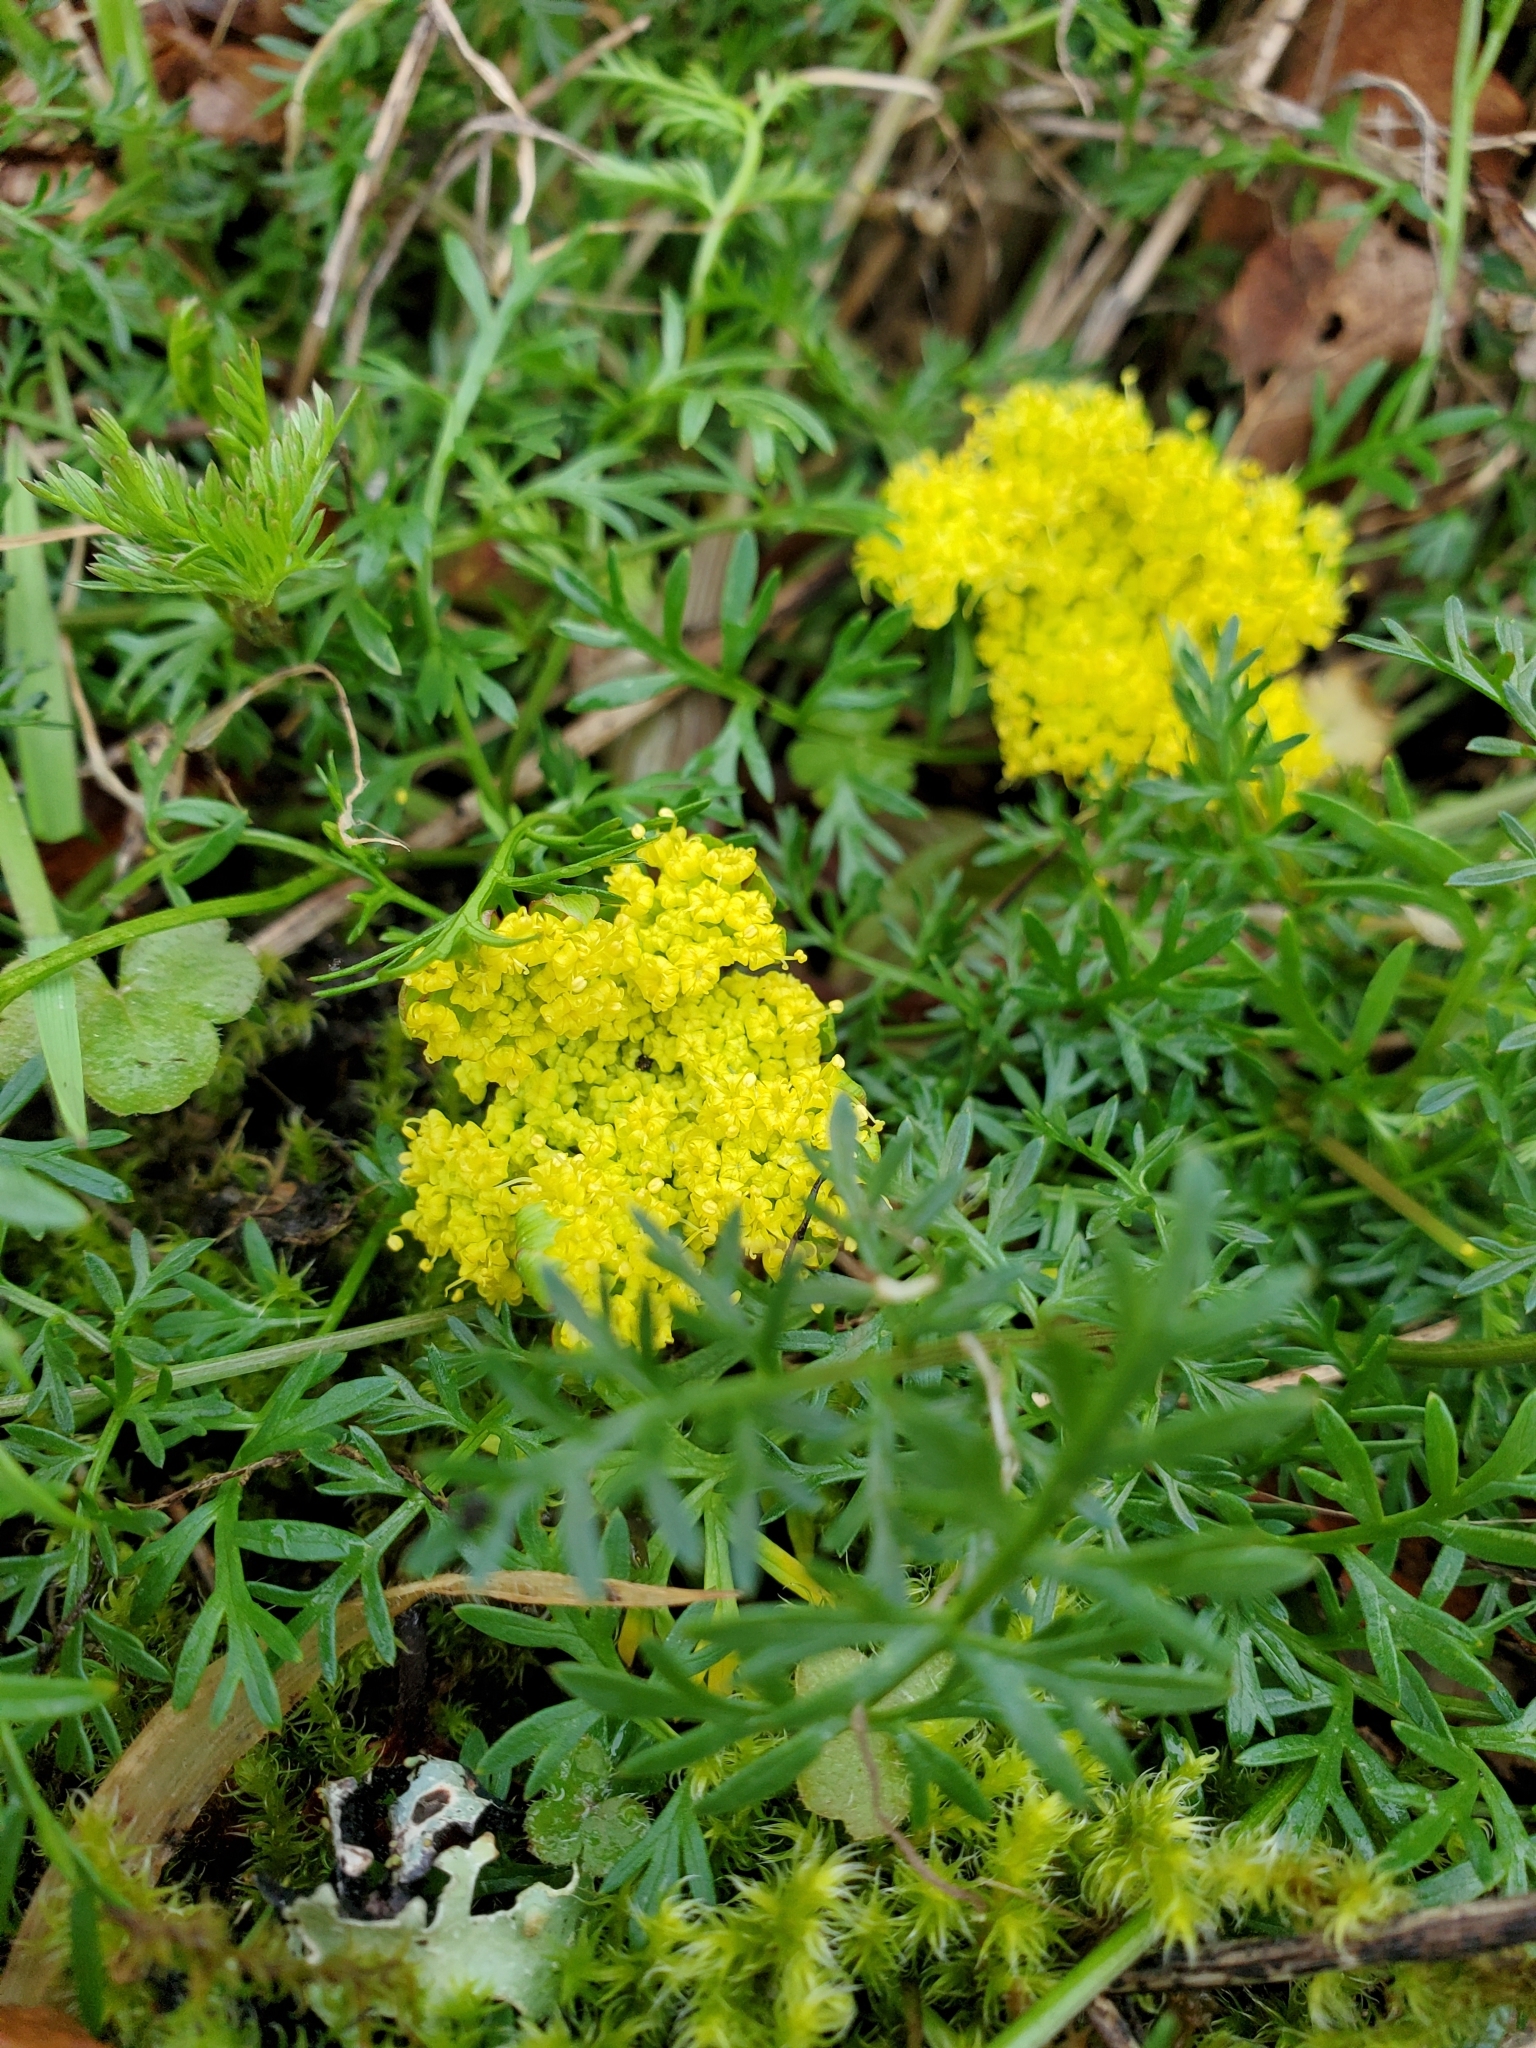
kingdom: Plantae
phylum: Tracheophyta
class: Magnoliopsida
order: Apiales
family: Apiaceae
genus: Lomatium
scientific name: Lomatium utriculatum
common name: Fine-leaf desert-parsley
